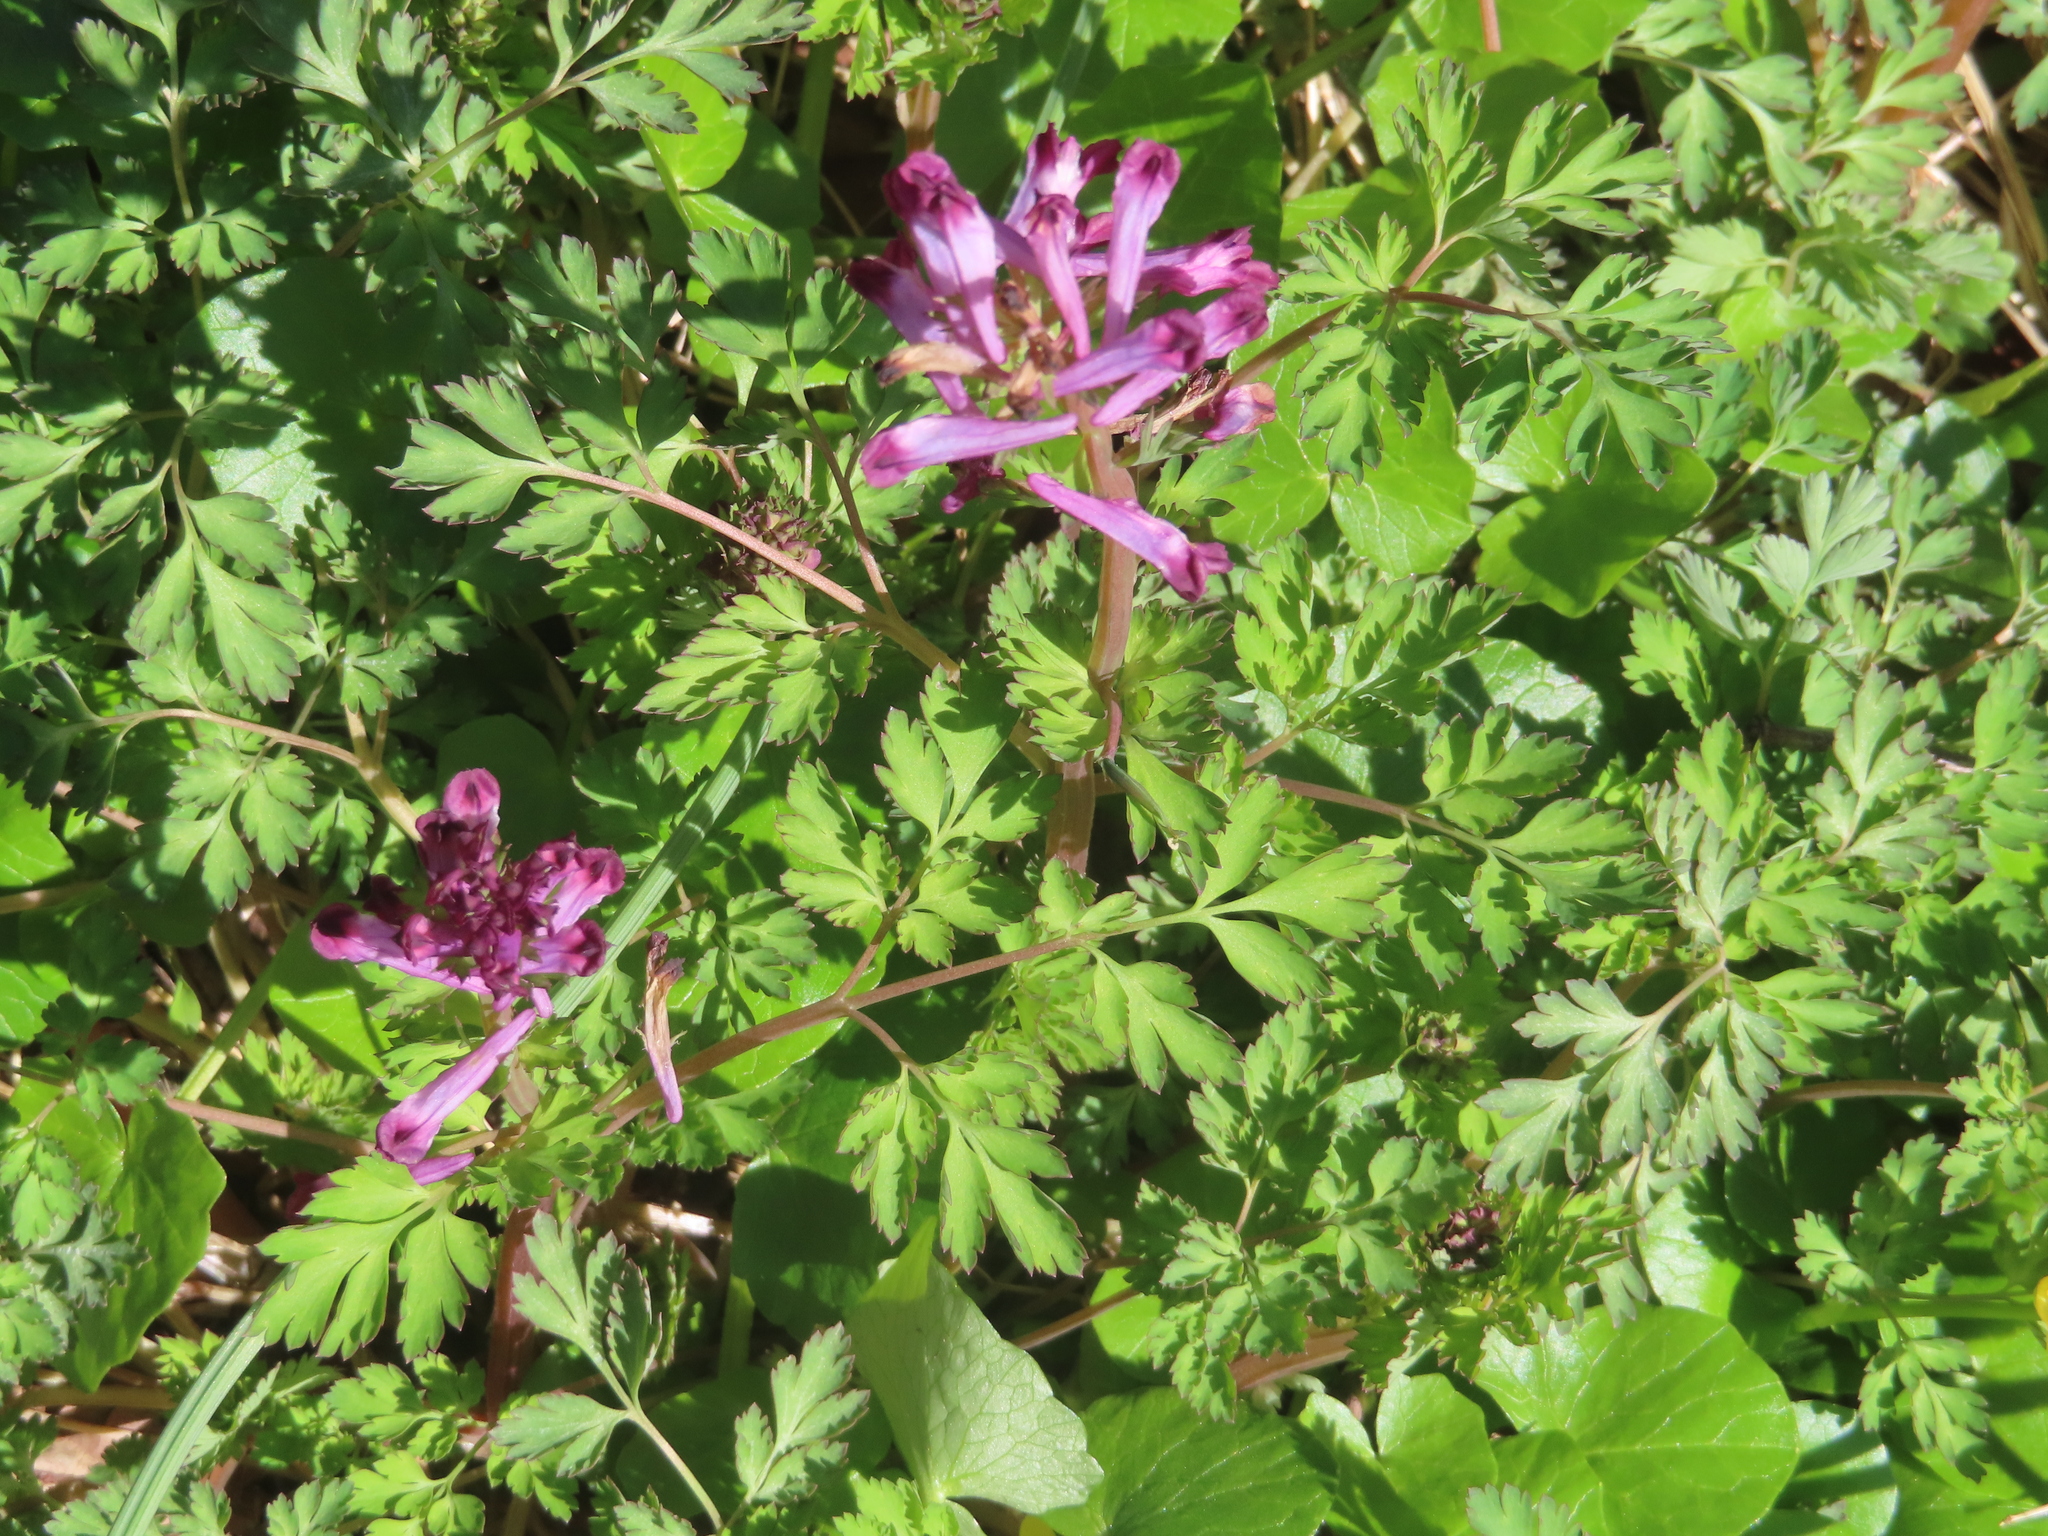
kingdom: Plantae
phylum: Tracheophyta
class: Magnoliopsida
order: Ranunculales
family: Papaveraceae
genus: Corydalis
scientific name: Corydalis incisa
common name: Incised fumewort
